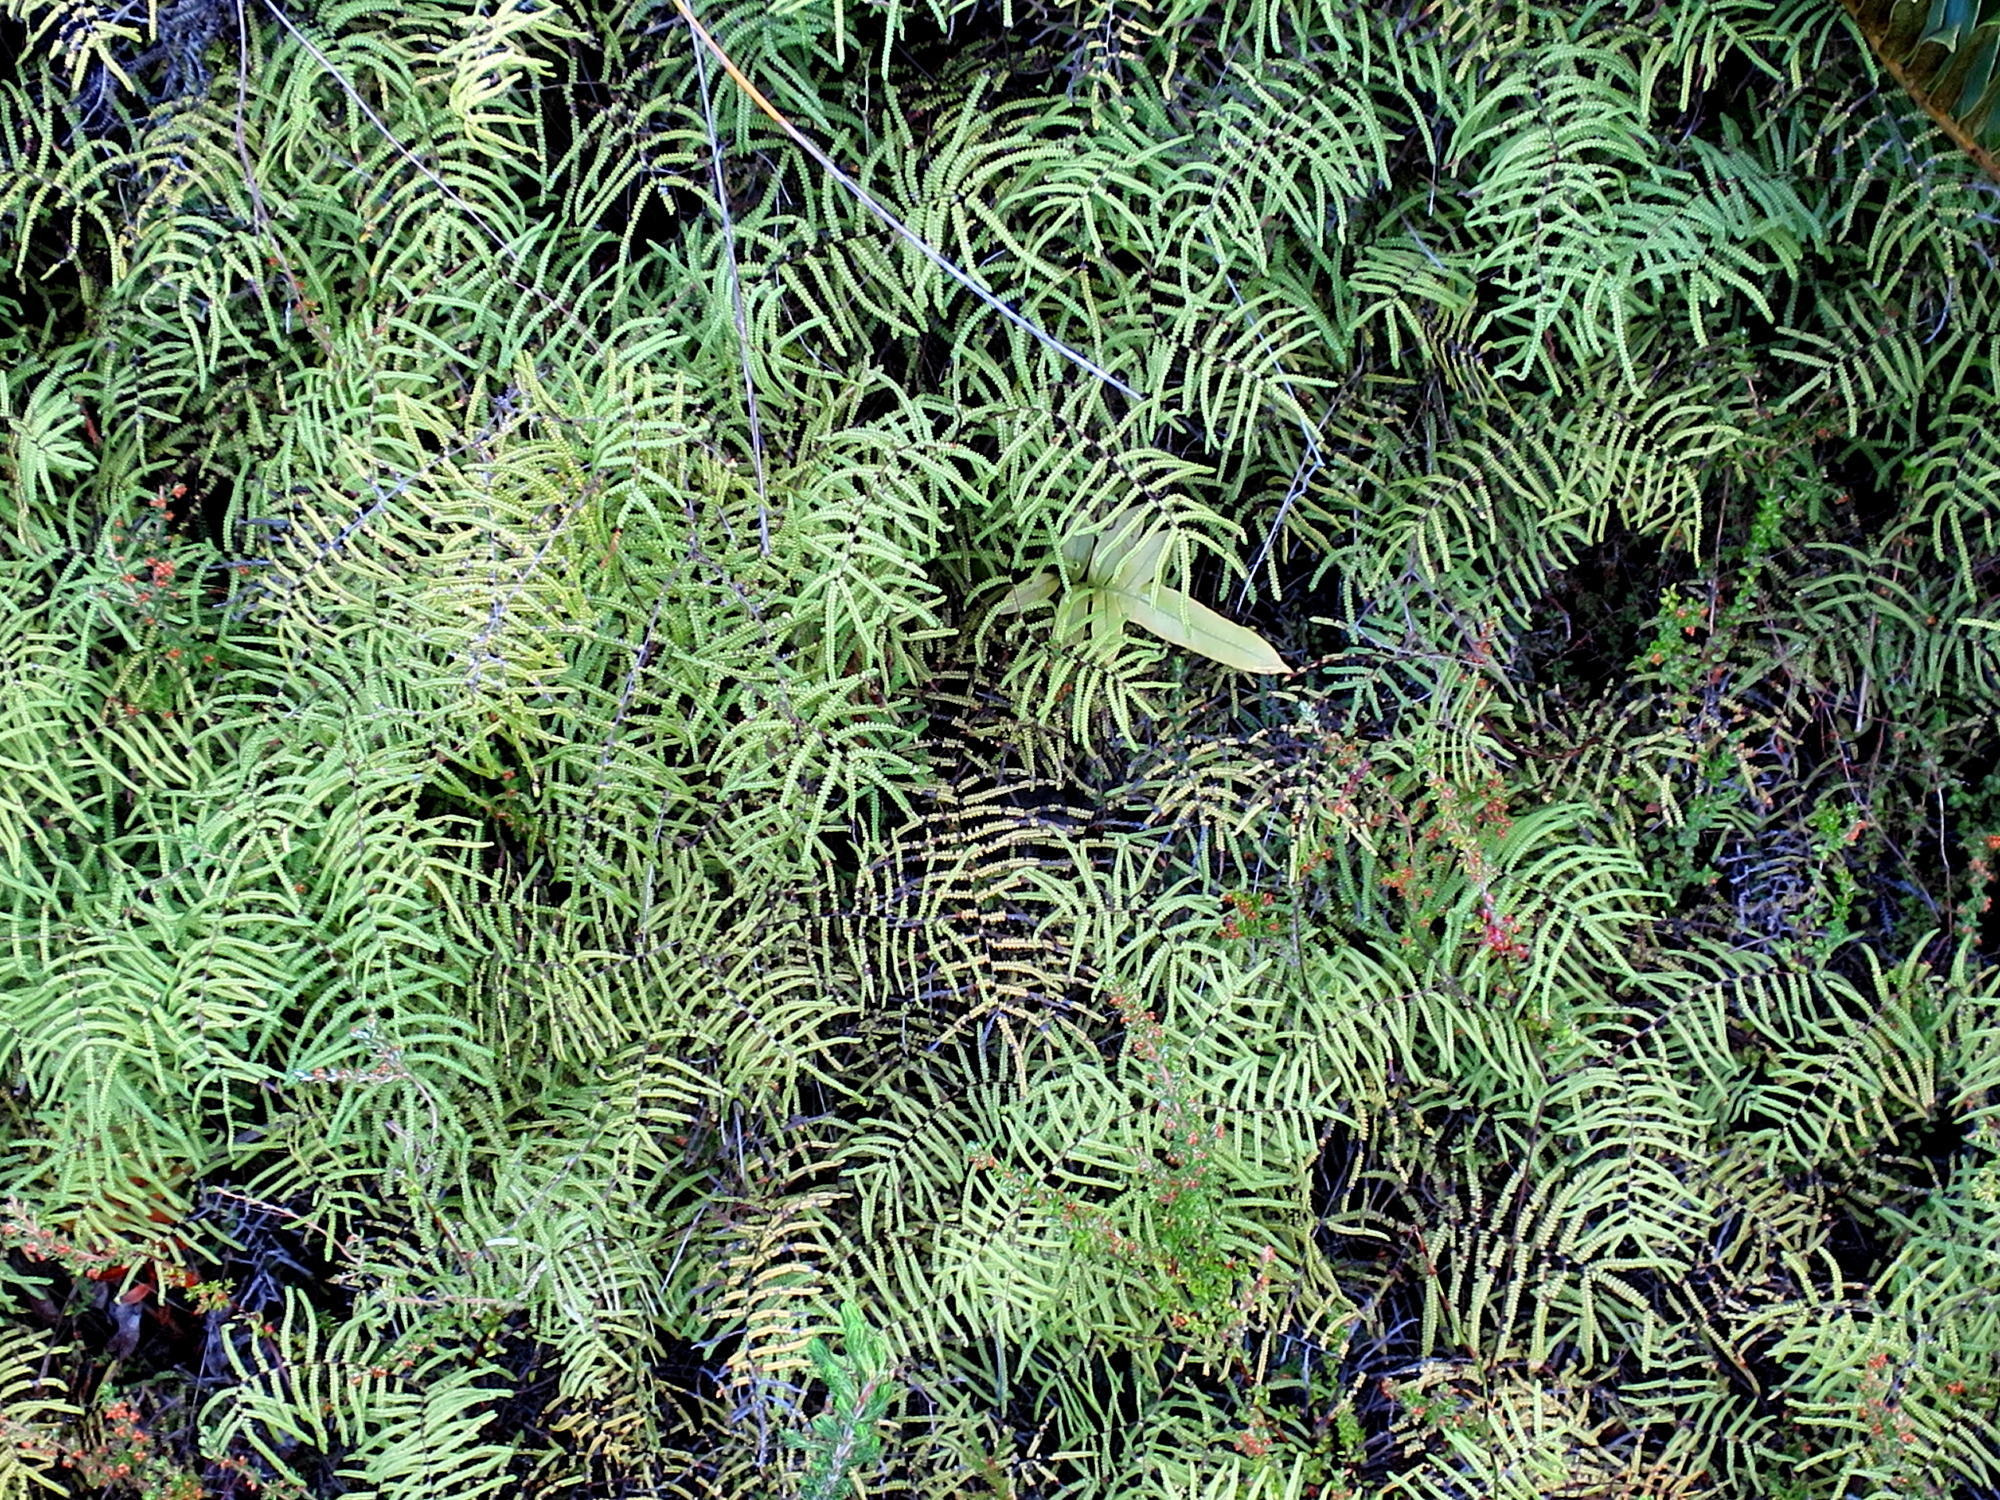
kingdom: Plantae
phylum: Tracheophyta
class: Polypodiopsida
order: Gleicheniales
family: Gleicheniaceae
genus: Gleichenia
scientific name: Gleichenia polypodioides
